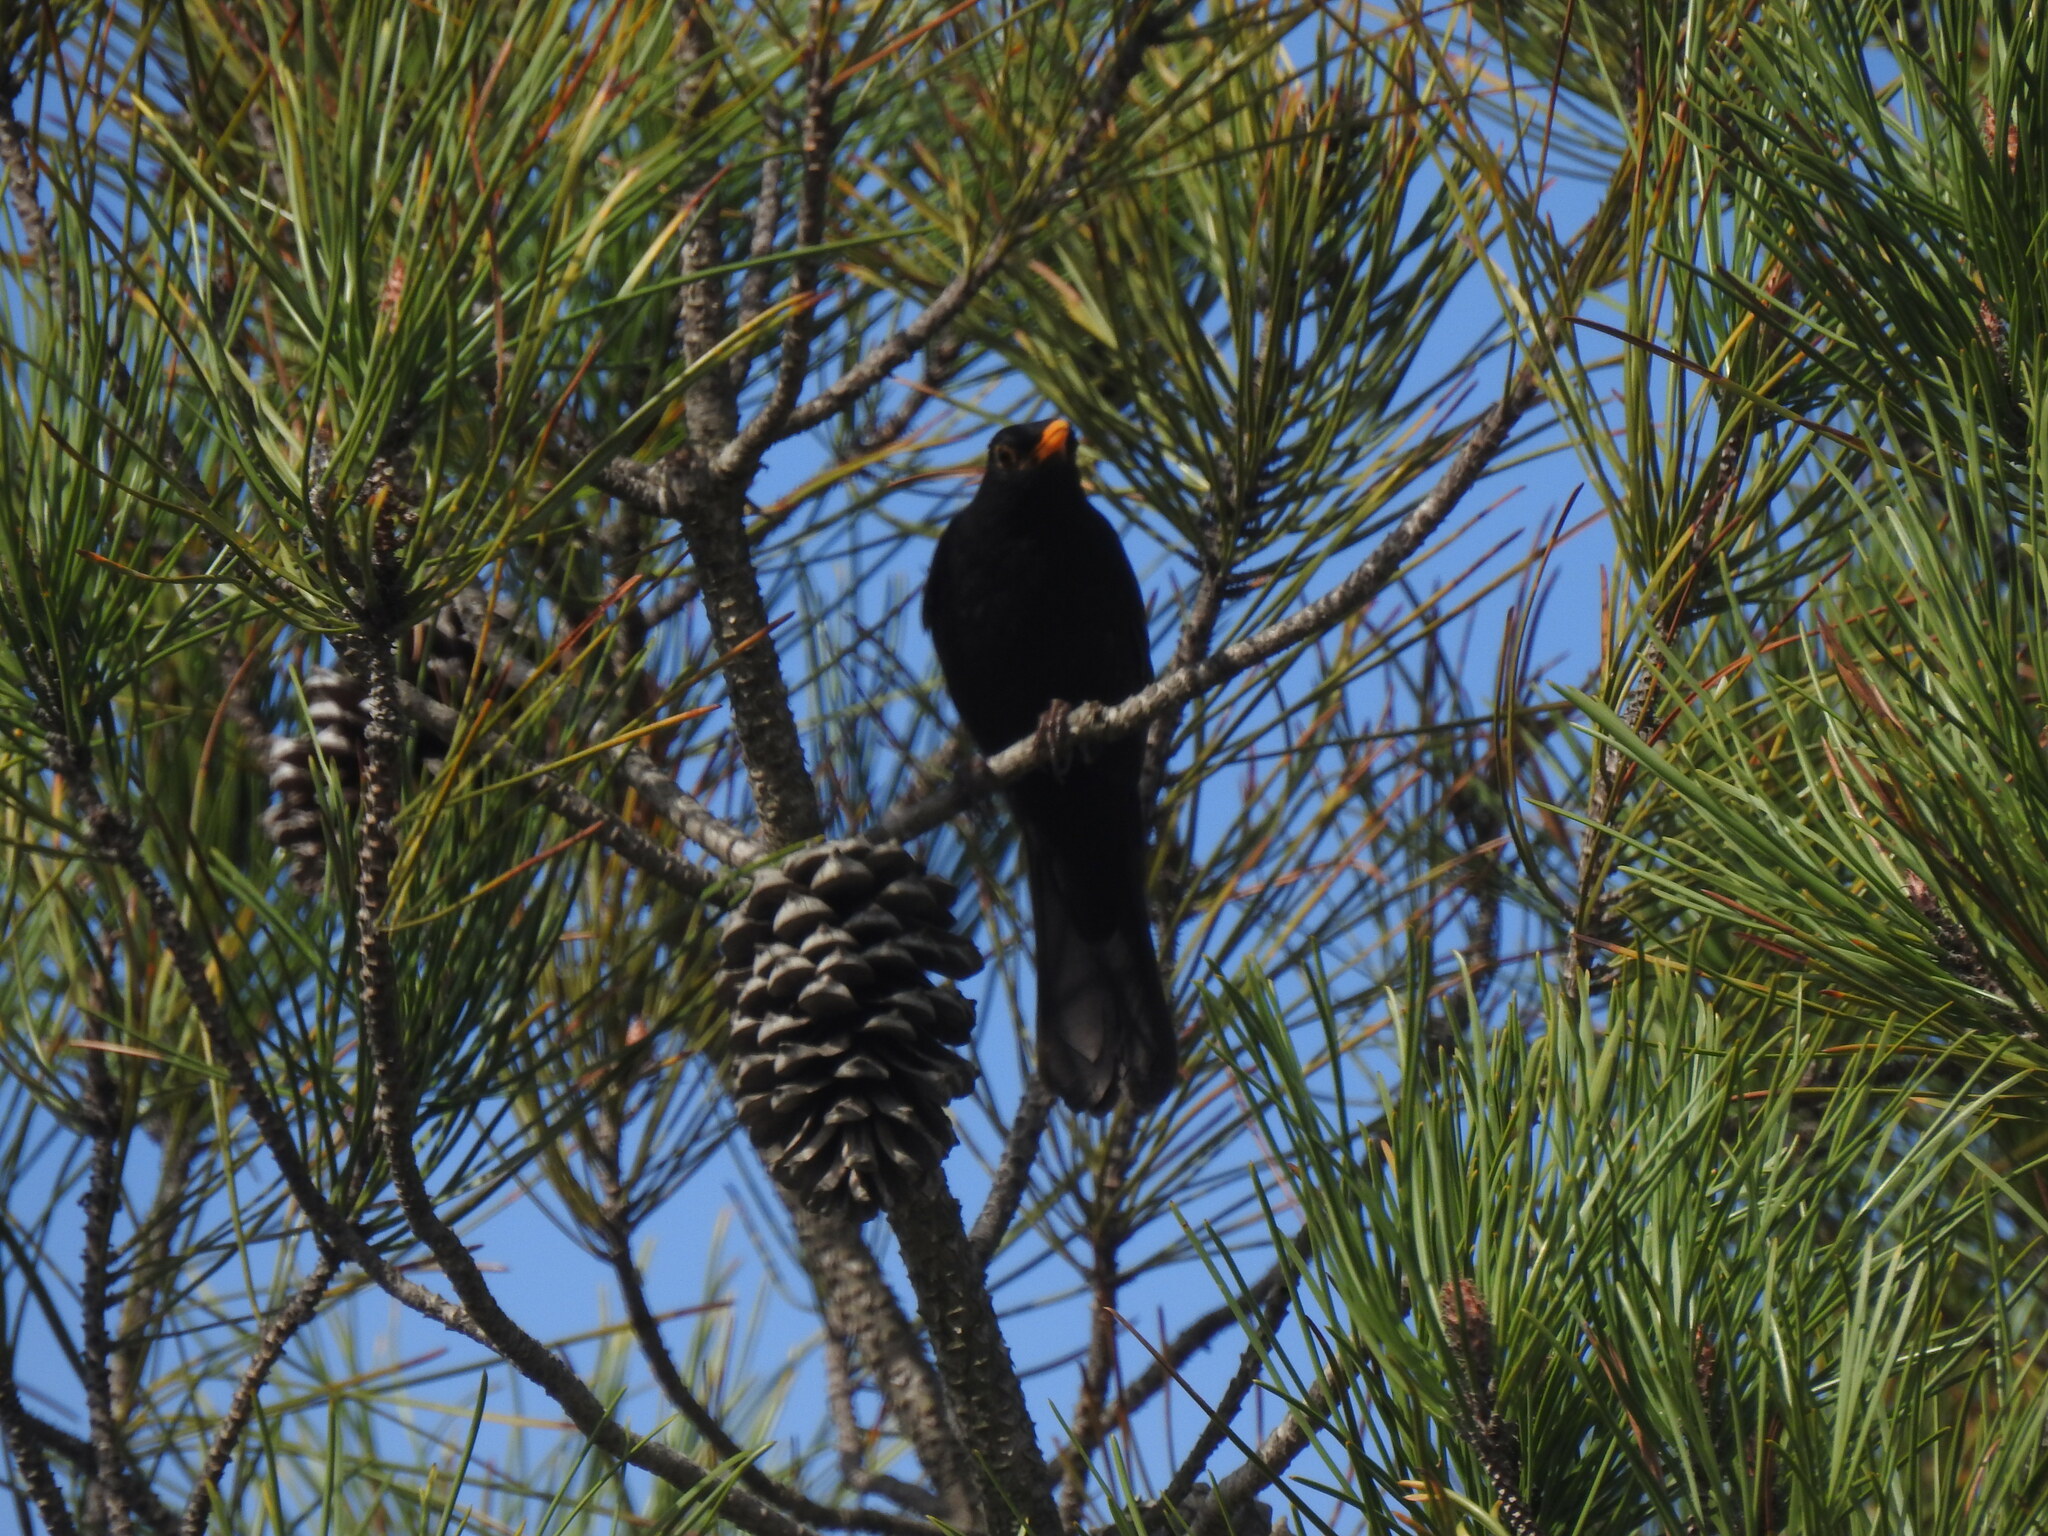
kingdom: Animalia
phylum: Chordata
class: Aves
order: Passeriformes
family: Turdidae
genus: Turdus
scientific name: Turdus merula
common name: Common blackbird
